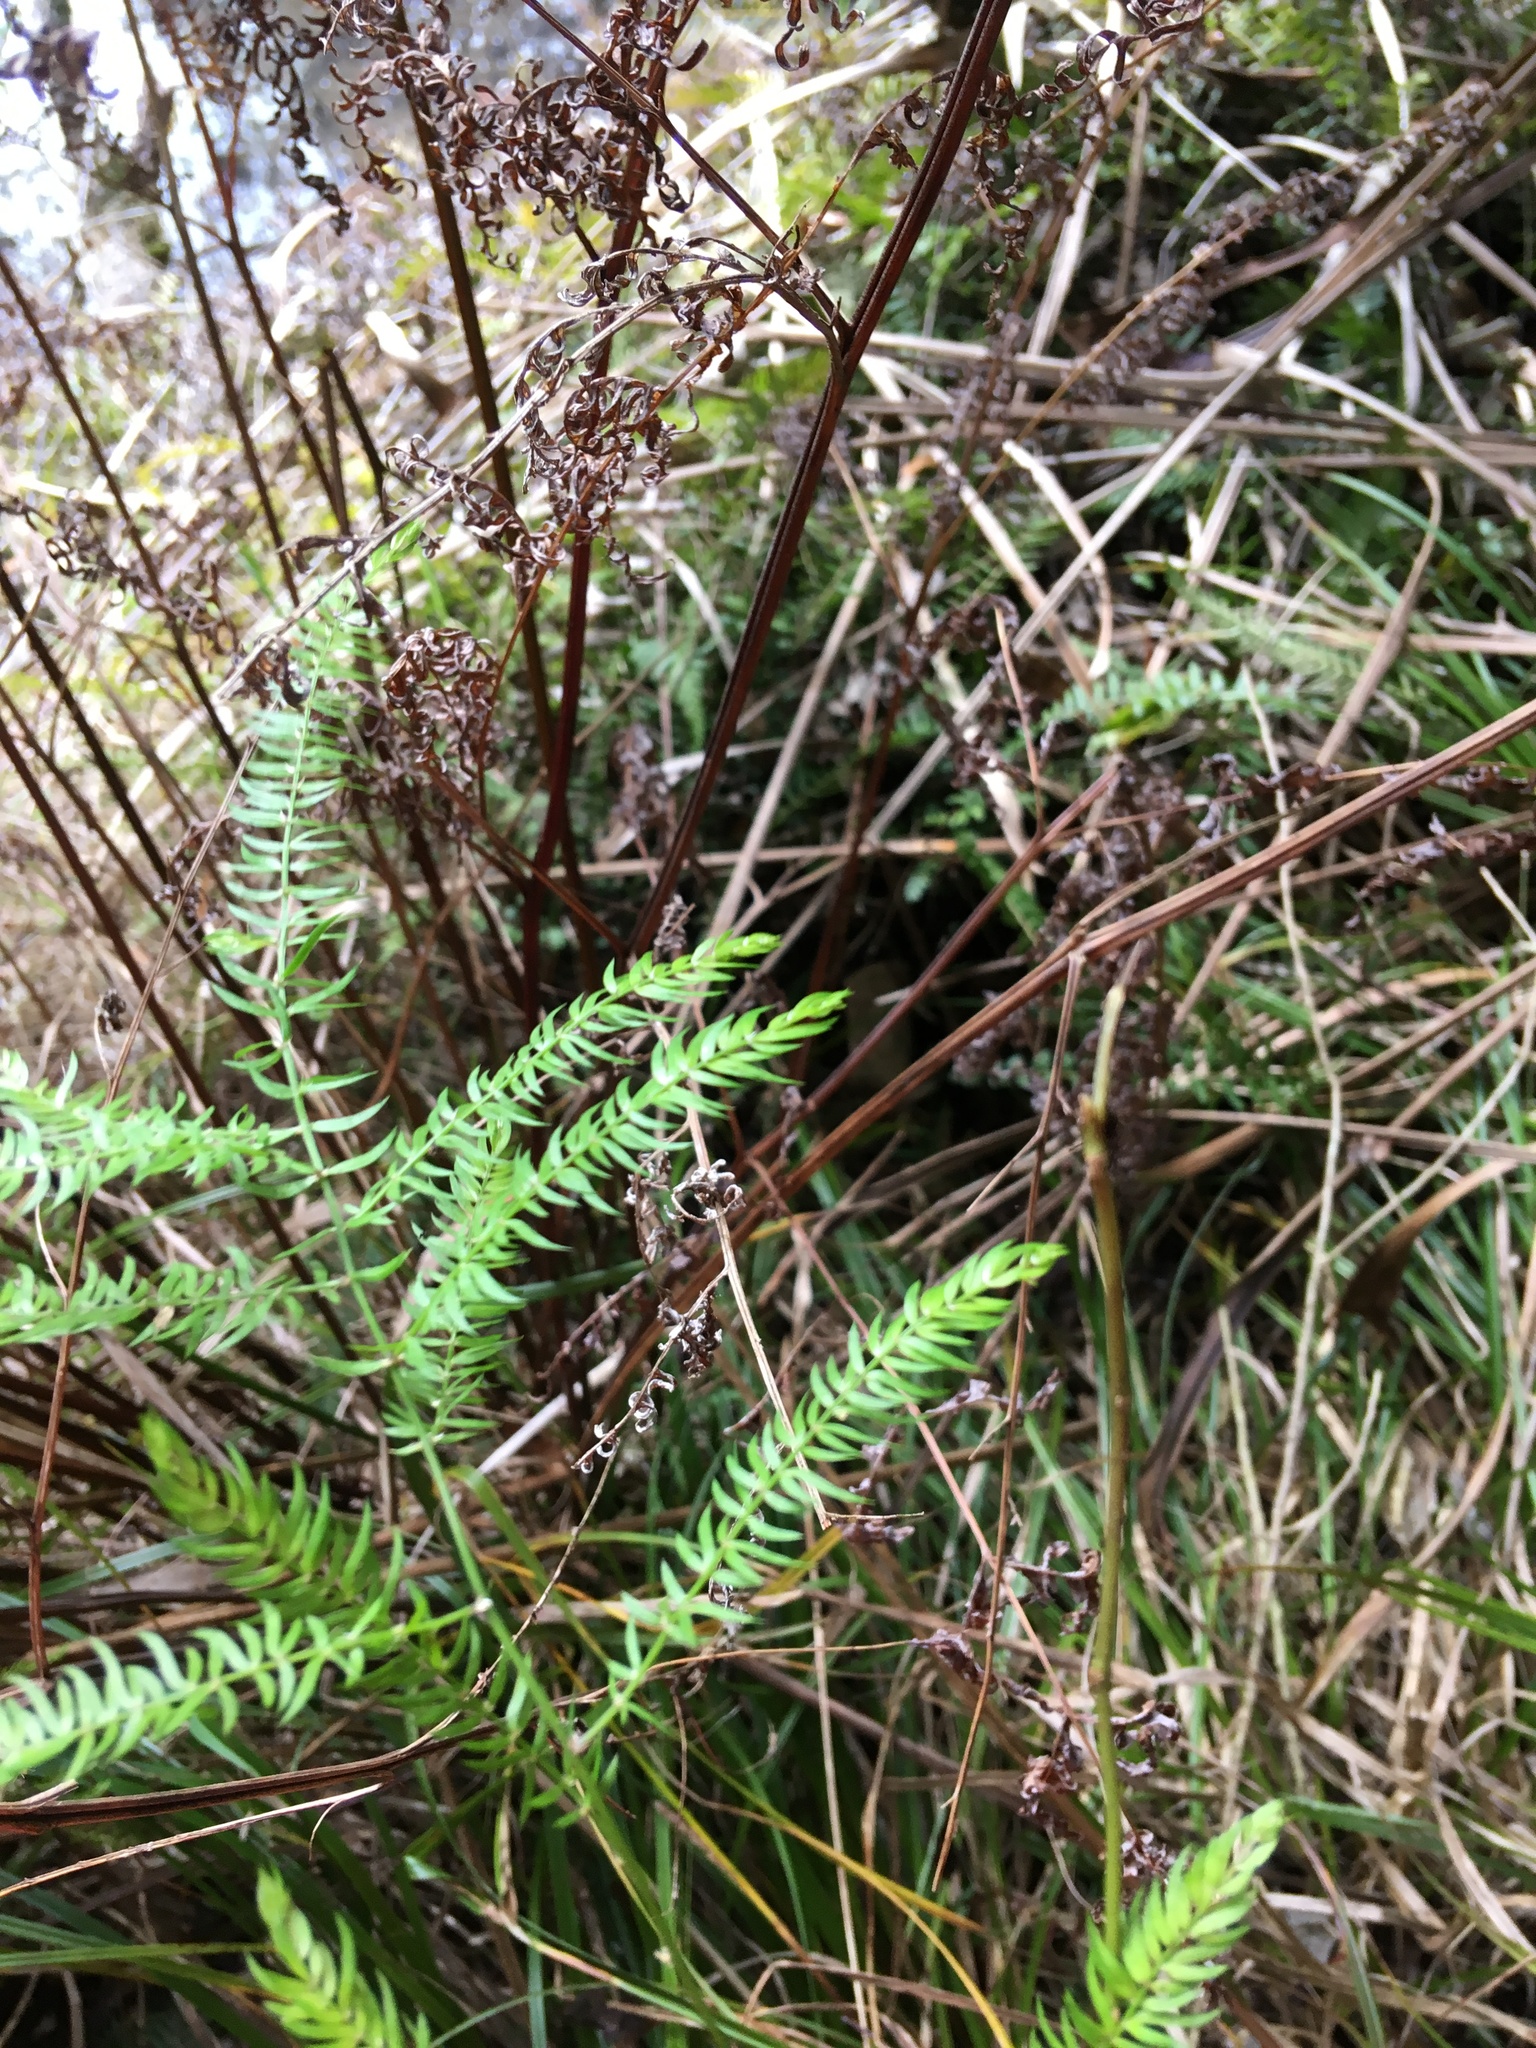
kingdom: Plantae
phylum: Tracheophyta
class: Liliopsida
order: Asparagales
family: Asparagaceae
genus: Asparagus
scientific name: Asparagus scandens
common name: Asparagus-fern
